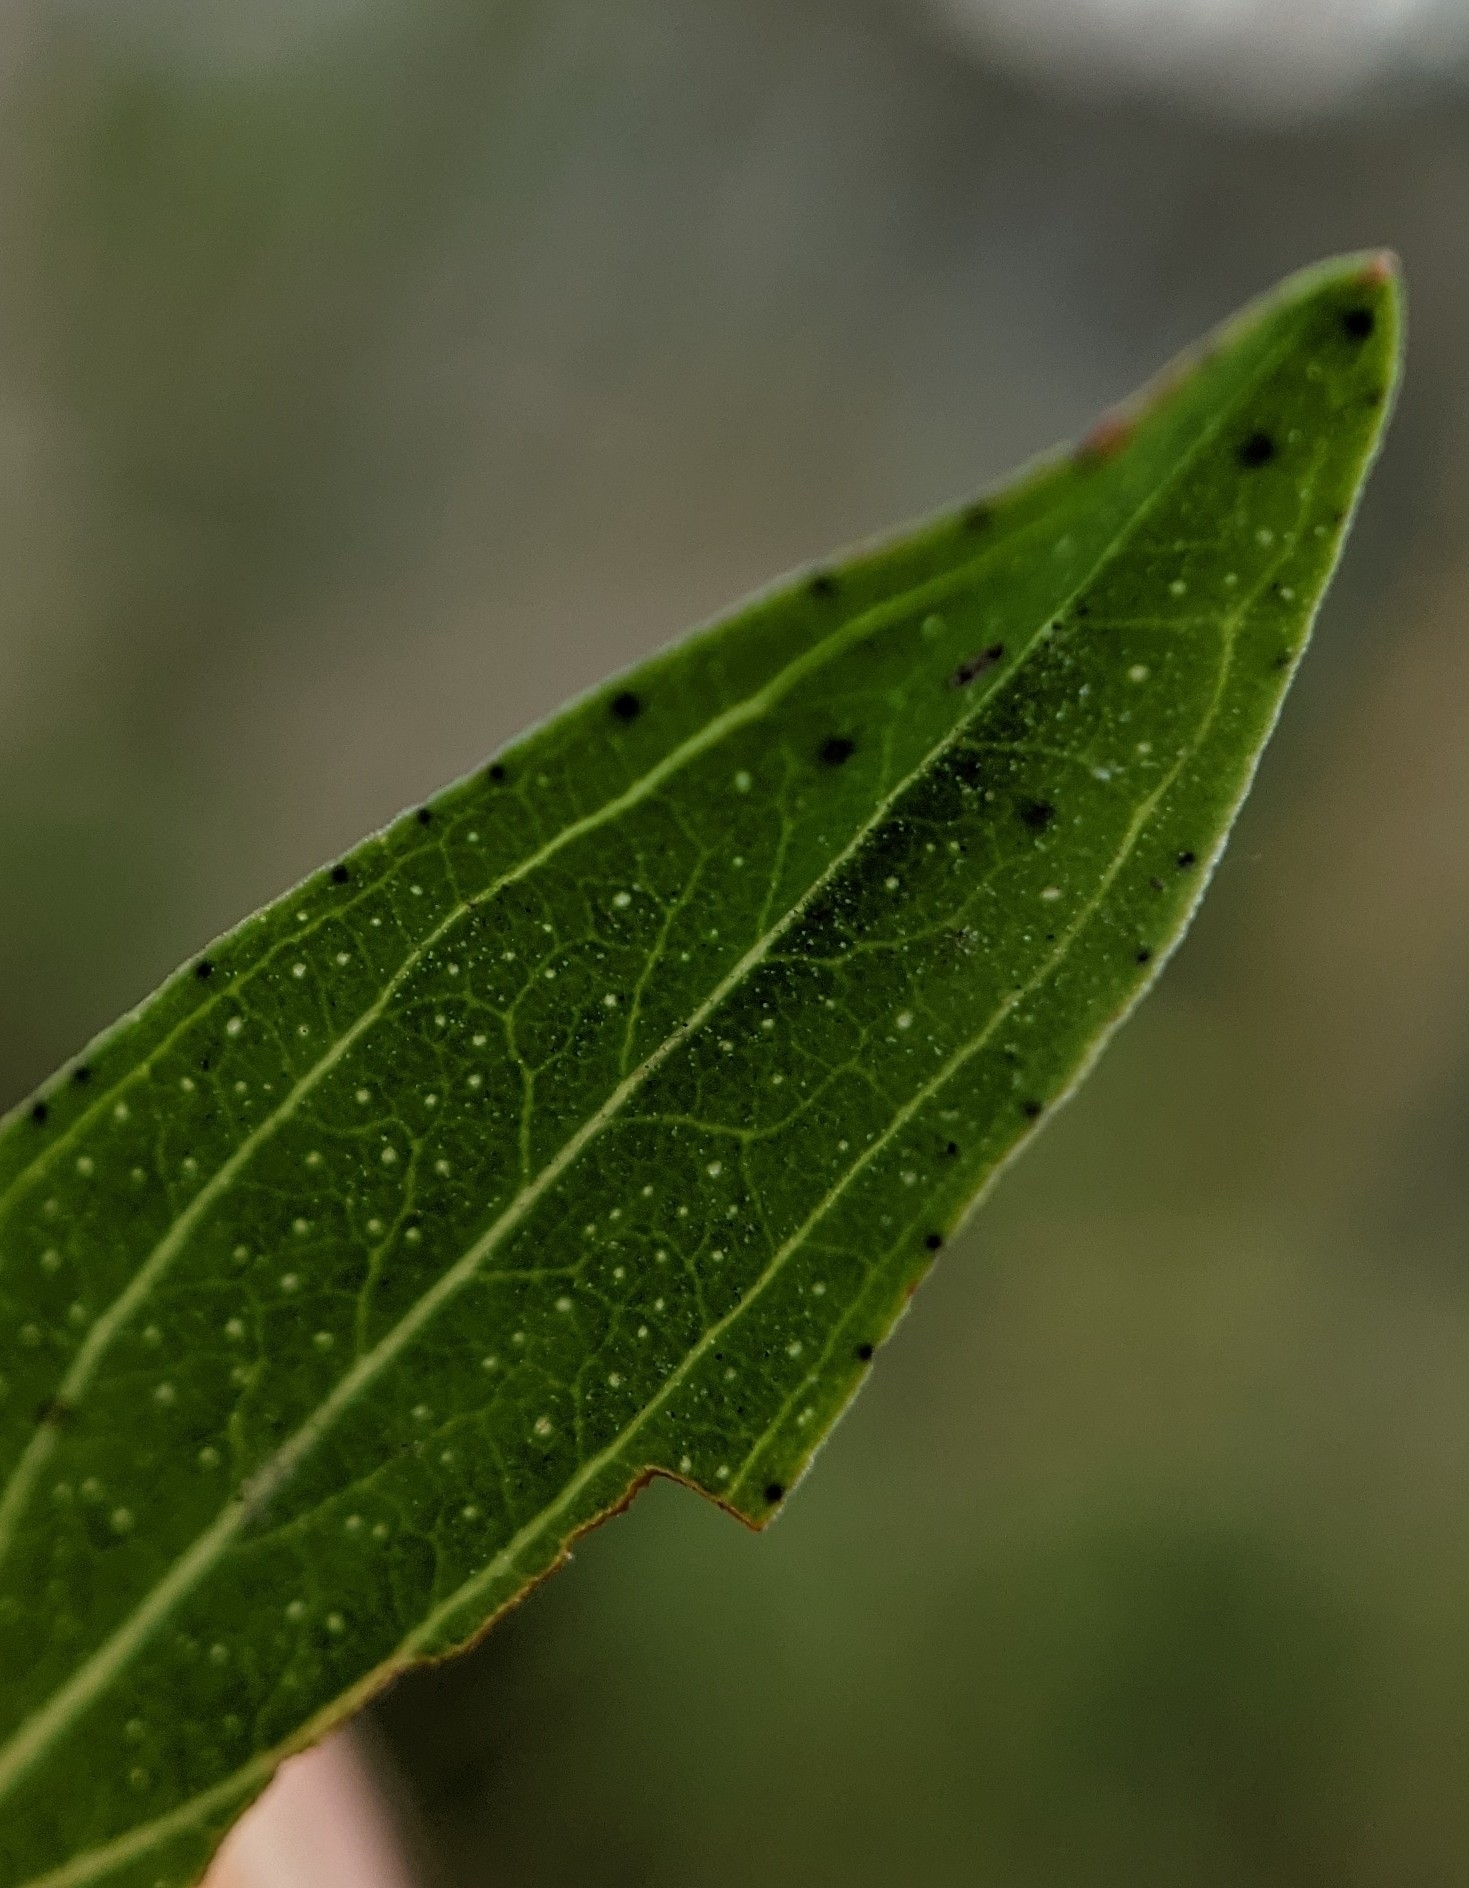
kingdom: Plantae
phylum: Tracheophyta
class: Magnoliopsida
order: Malpighiales
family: Hypericaceae
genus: Hypericum
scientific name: Hypericum perforatum
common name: Common st. johnswort
